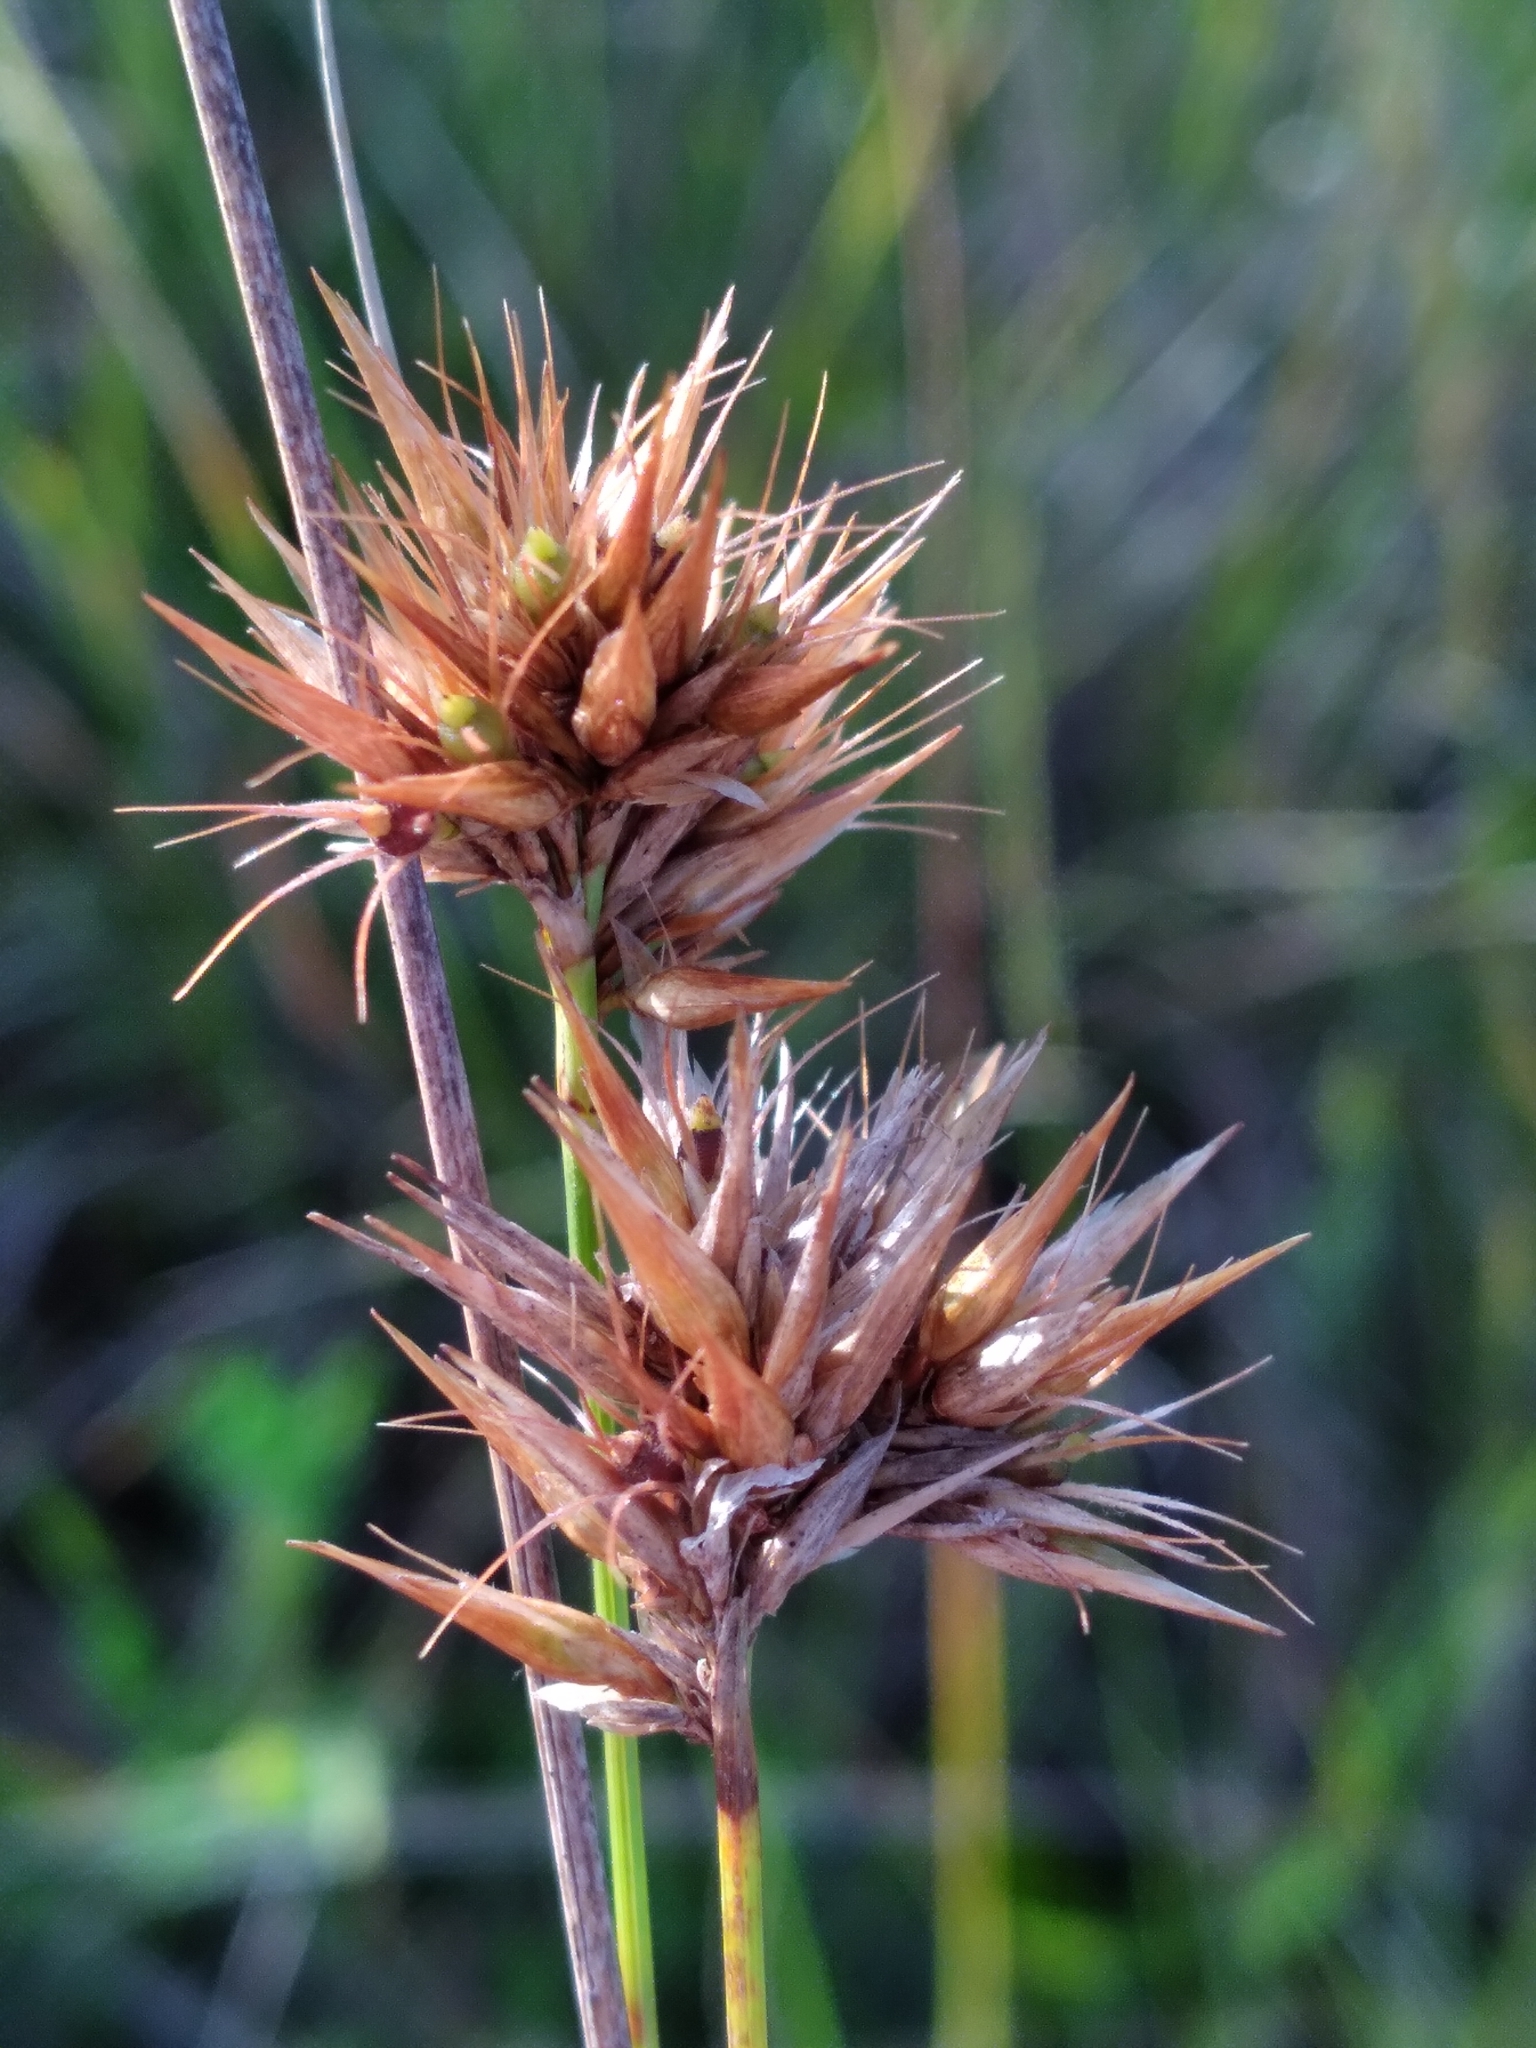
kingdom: Plantae
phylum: Tracheophyta
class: Liliopsida
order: Poales
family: Cyperaceae
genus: Rhynchospora
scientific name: Rhynchospora megaplumosa
